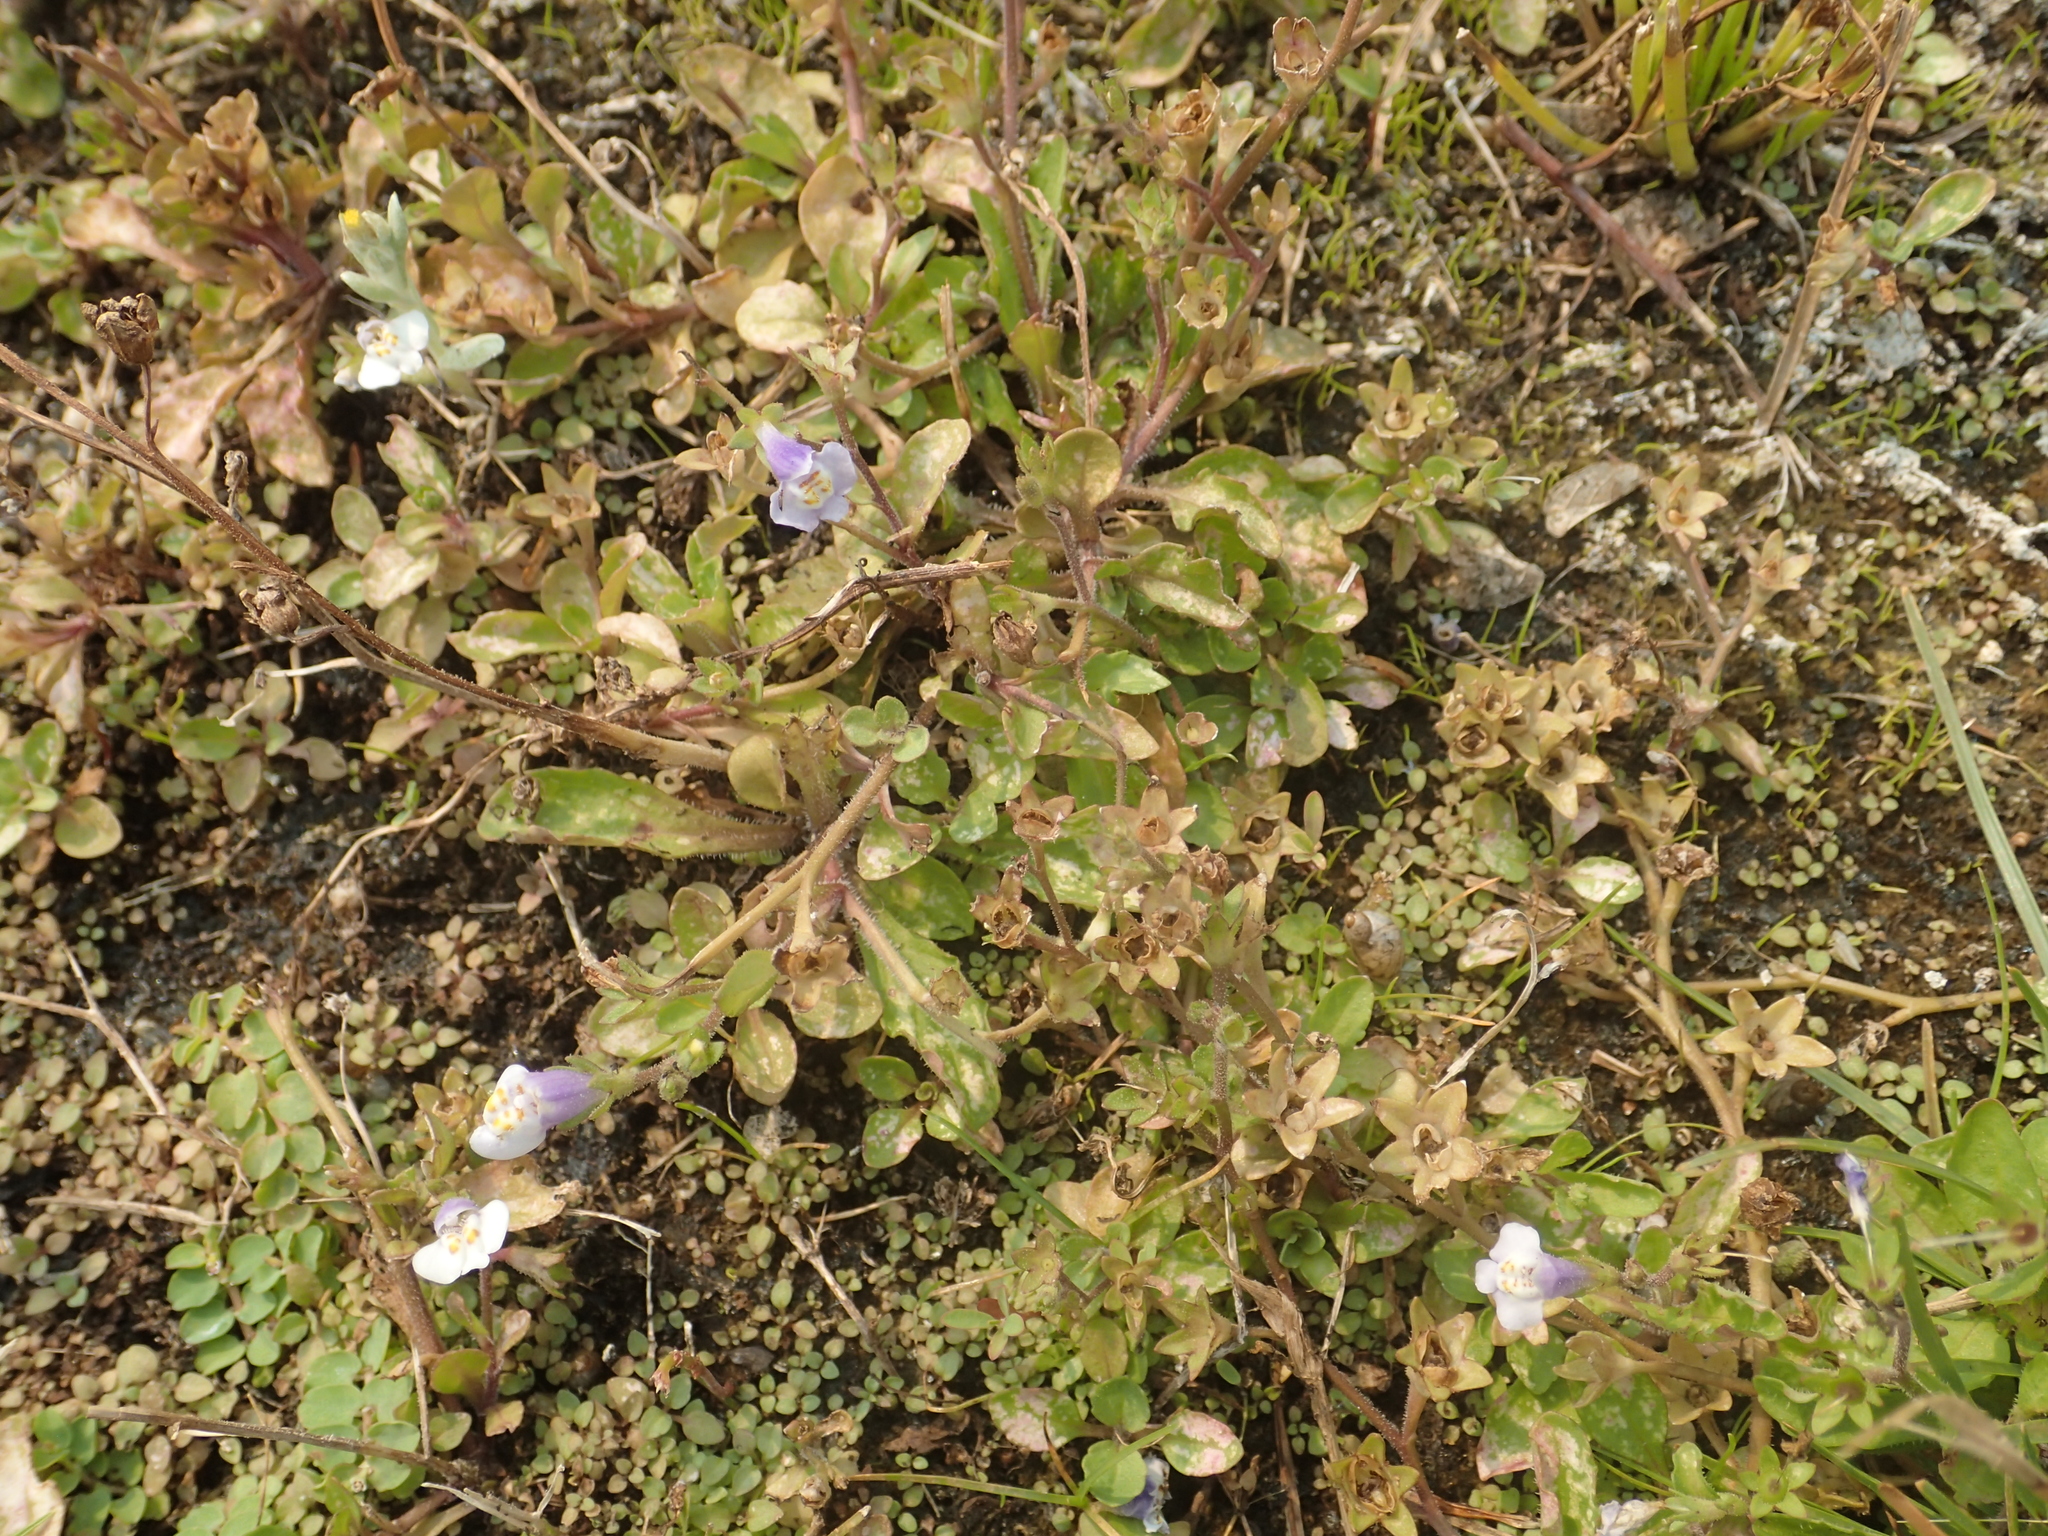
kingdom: Plantae
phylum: Tracheophyta
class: Magnoliopsida
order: Lamiales
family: Mazaceae
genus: Mazus
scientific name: Mazus pumilus
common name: Japanese mazus
